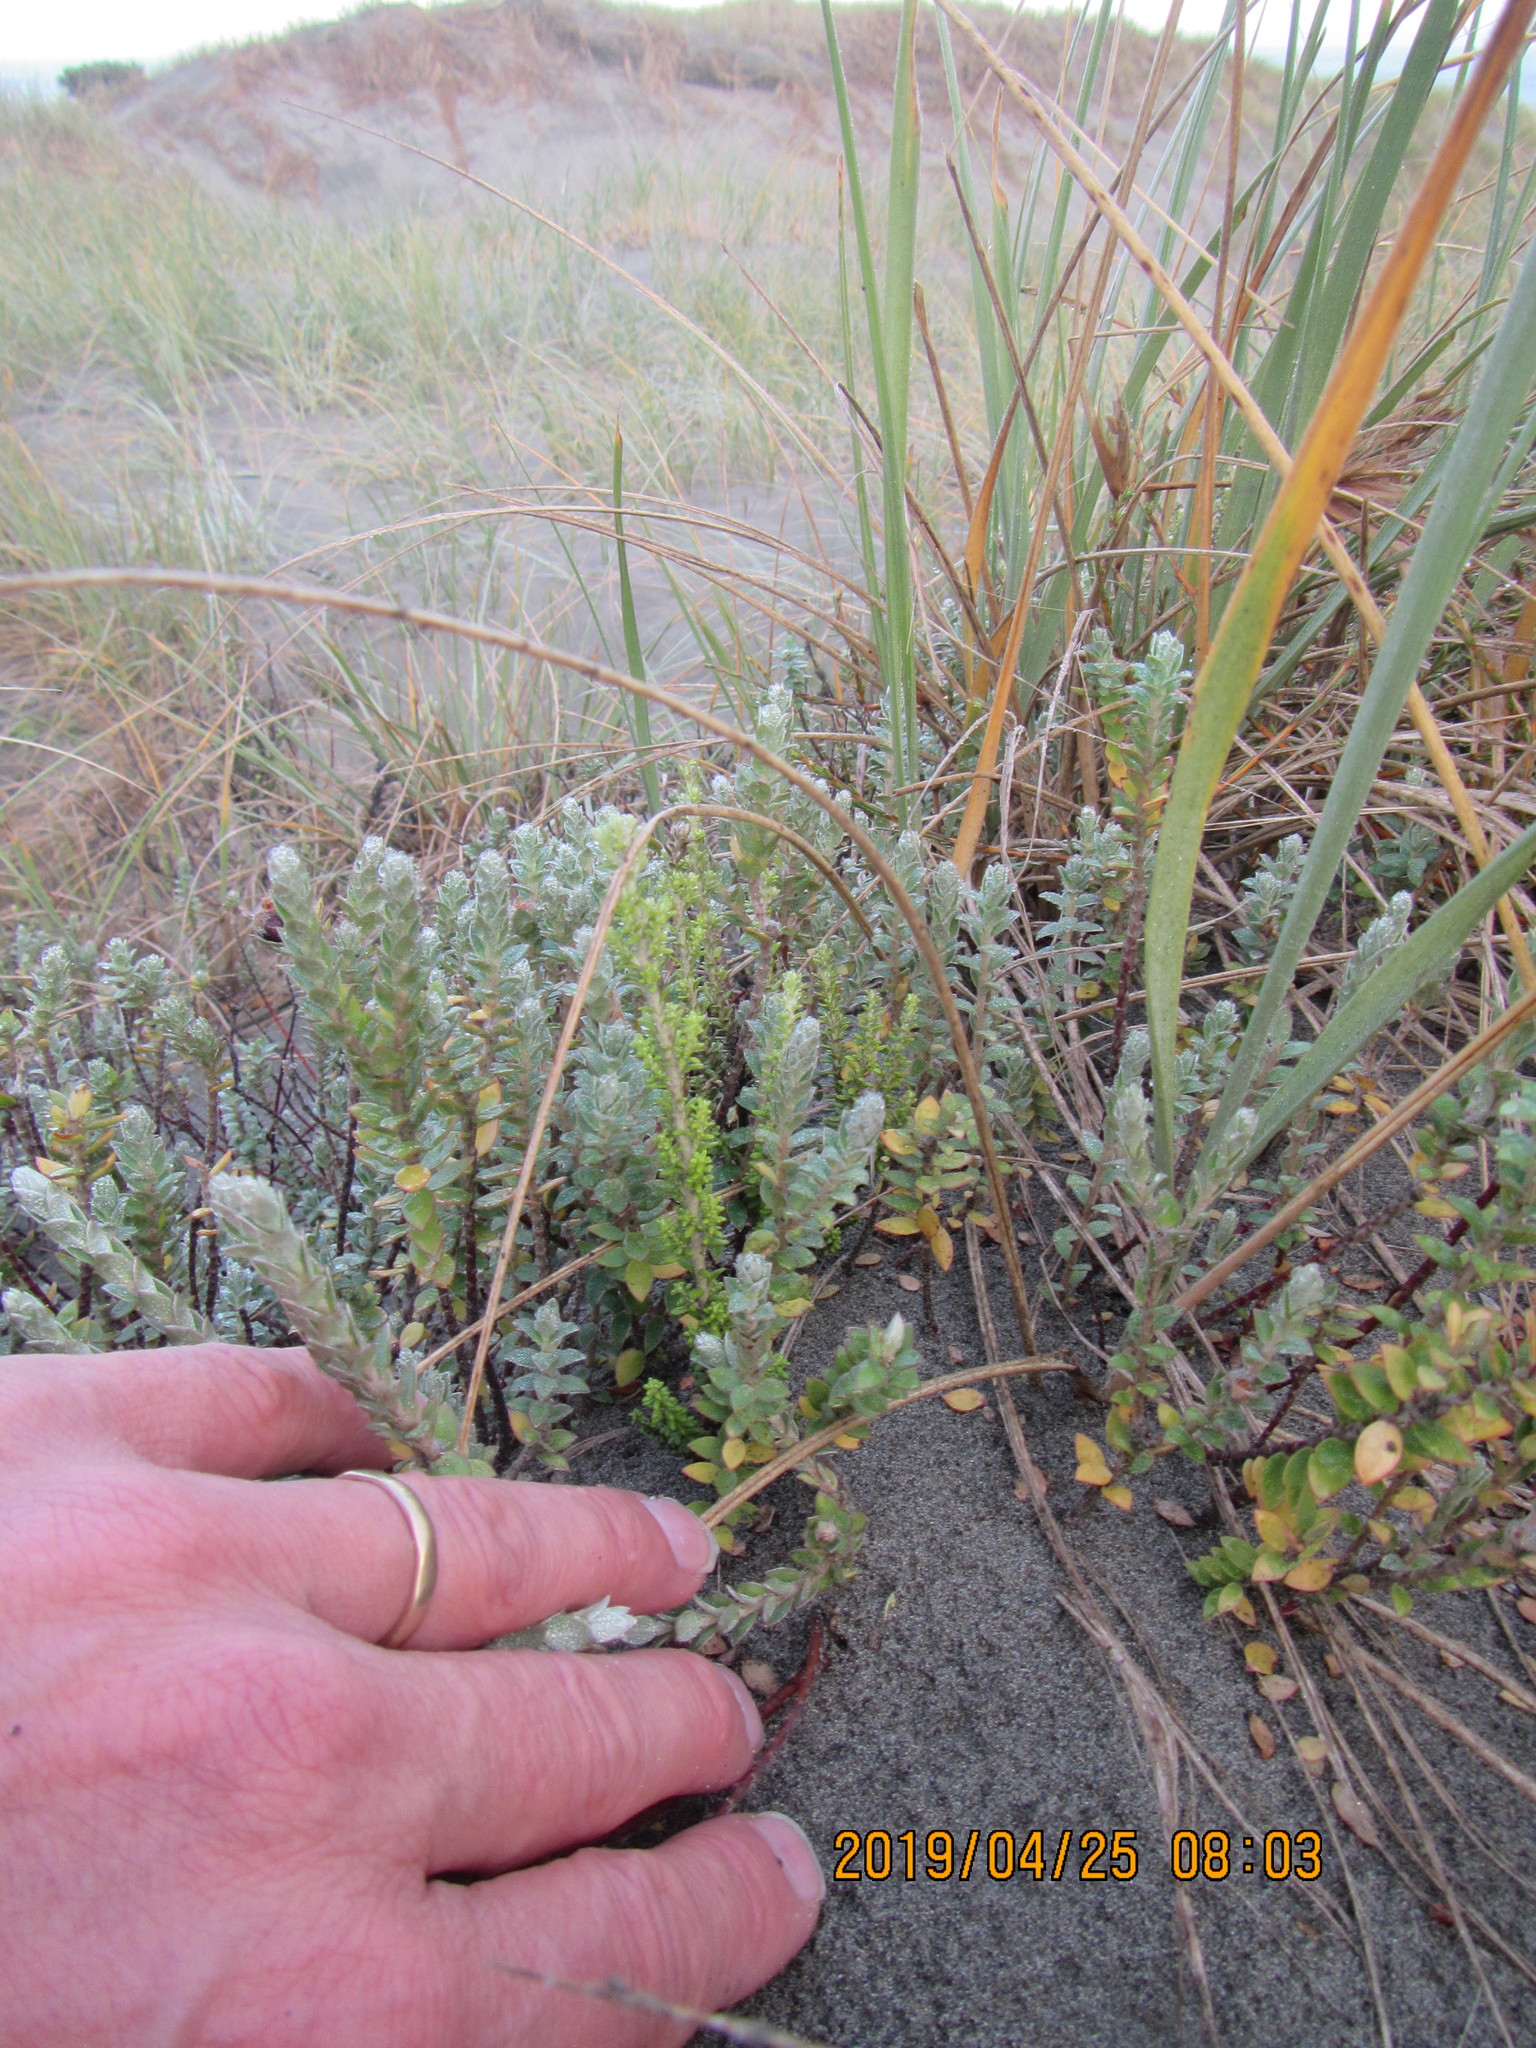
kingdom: Plantae
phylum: Tracheophyta
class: Magnoliopsida
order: Asterales
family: Asteraceae
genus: Ozothamnus
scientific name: Ozothamnus leptophyllus
